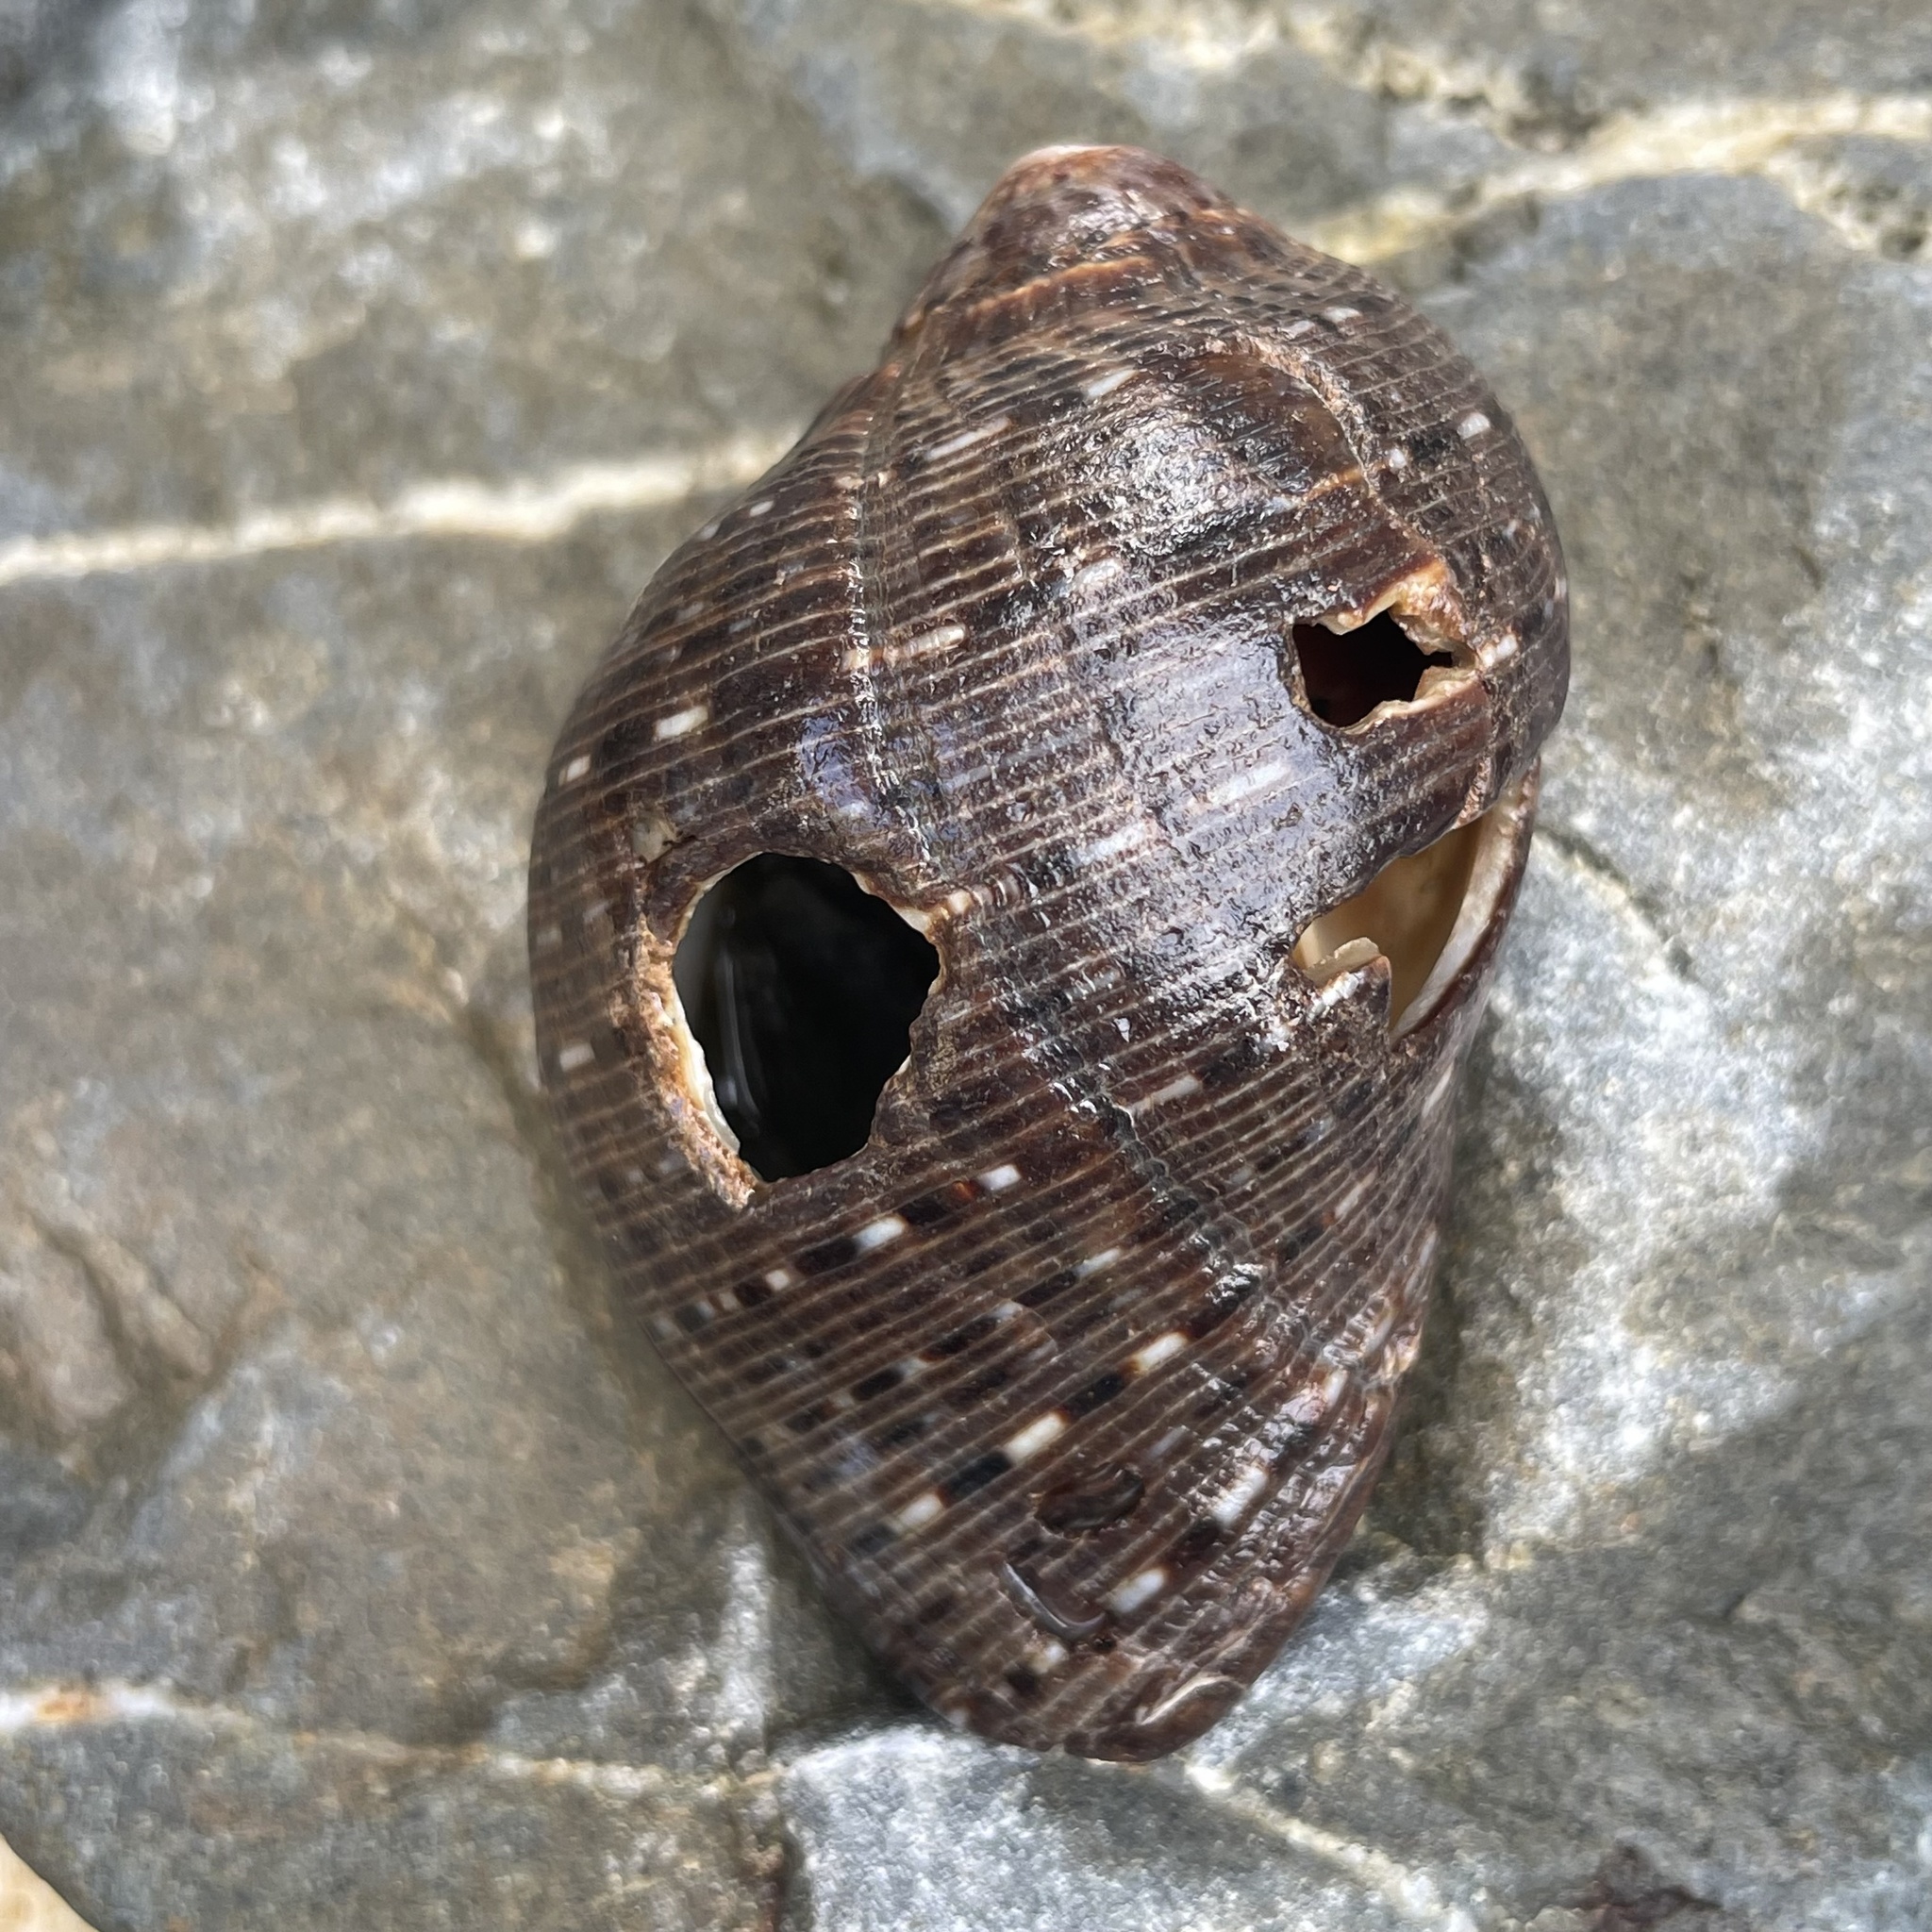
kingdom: Animalia
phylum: Mollusca
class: Gastropoda
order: Neogastropoda
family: Muricidae
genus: Purpura
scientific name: Purpura persica
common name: Persian purpura
